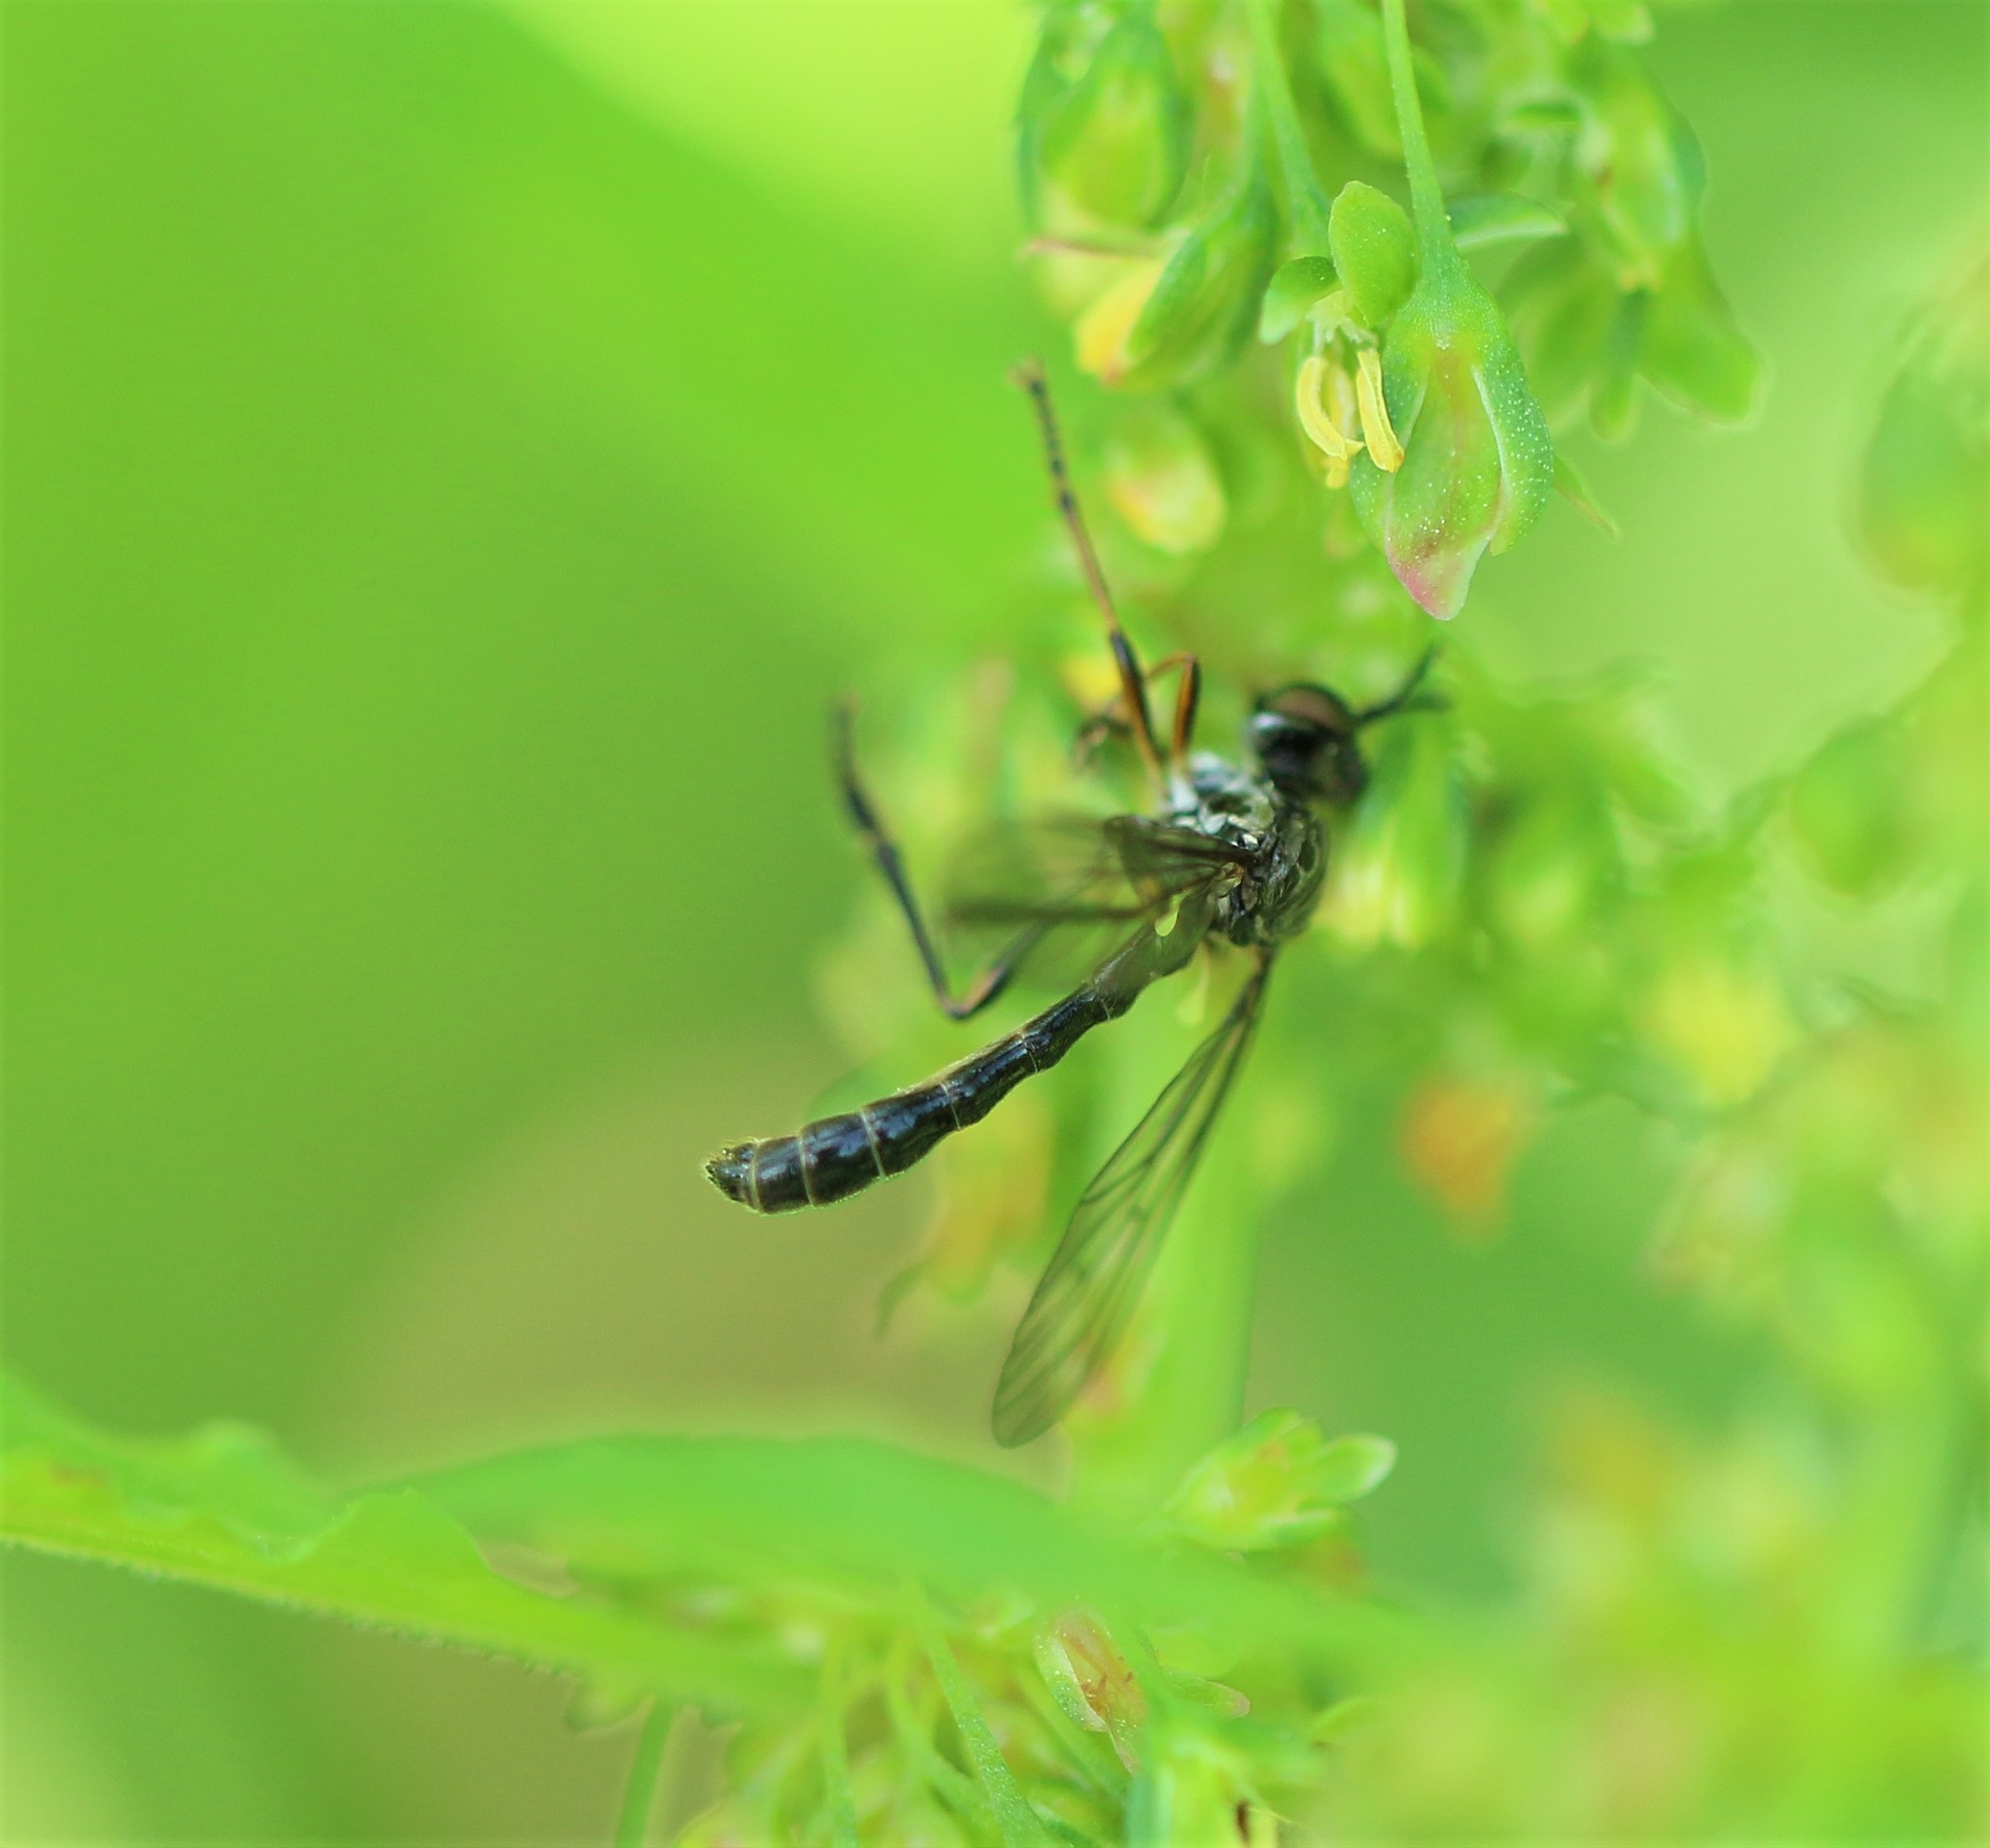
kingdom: Animalia
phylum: Arthropoda
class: Insecta
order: Diptera
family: Asilidae
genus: Dioctria
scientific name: Dioctria hyalipennis
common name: Stripe-legged robberfly
